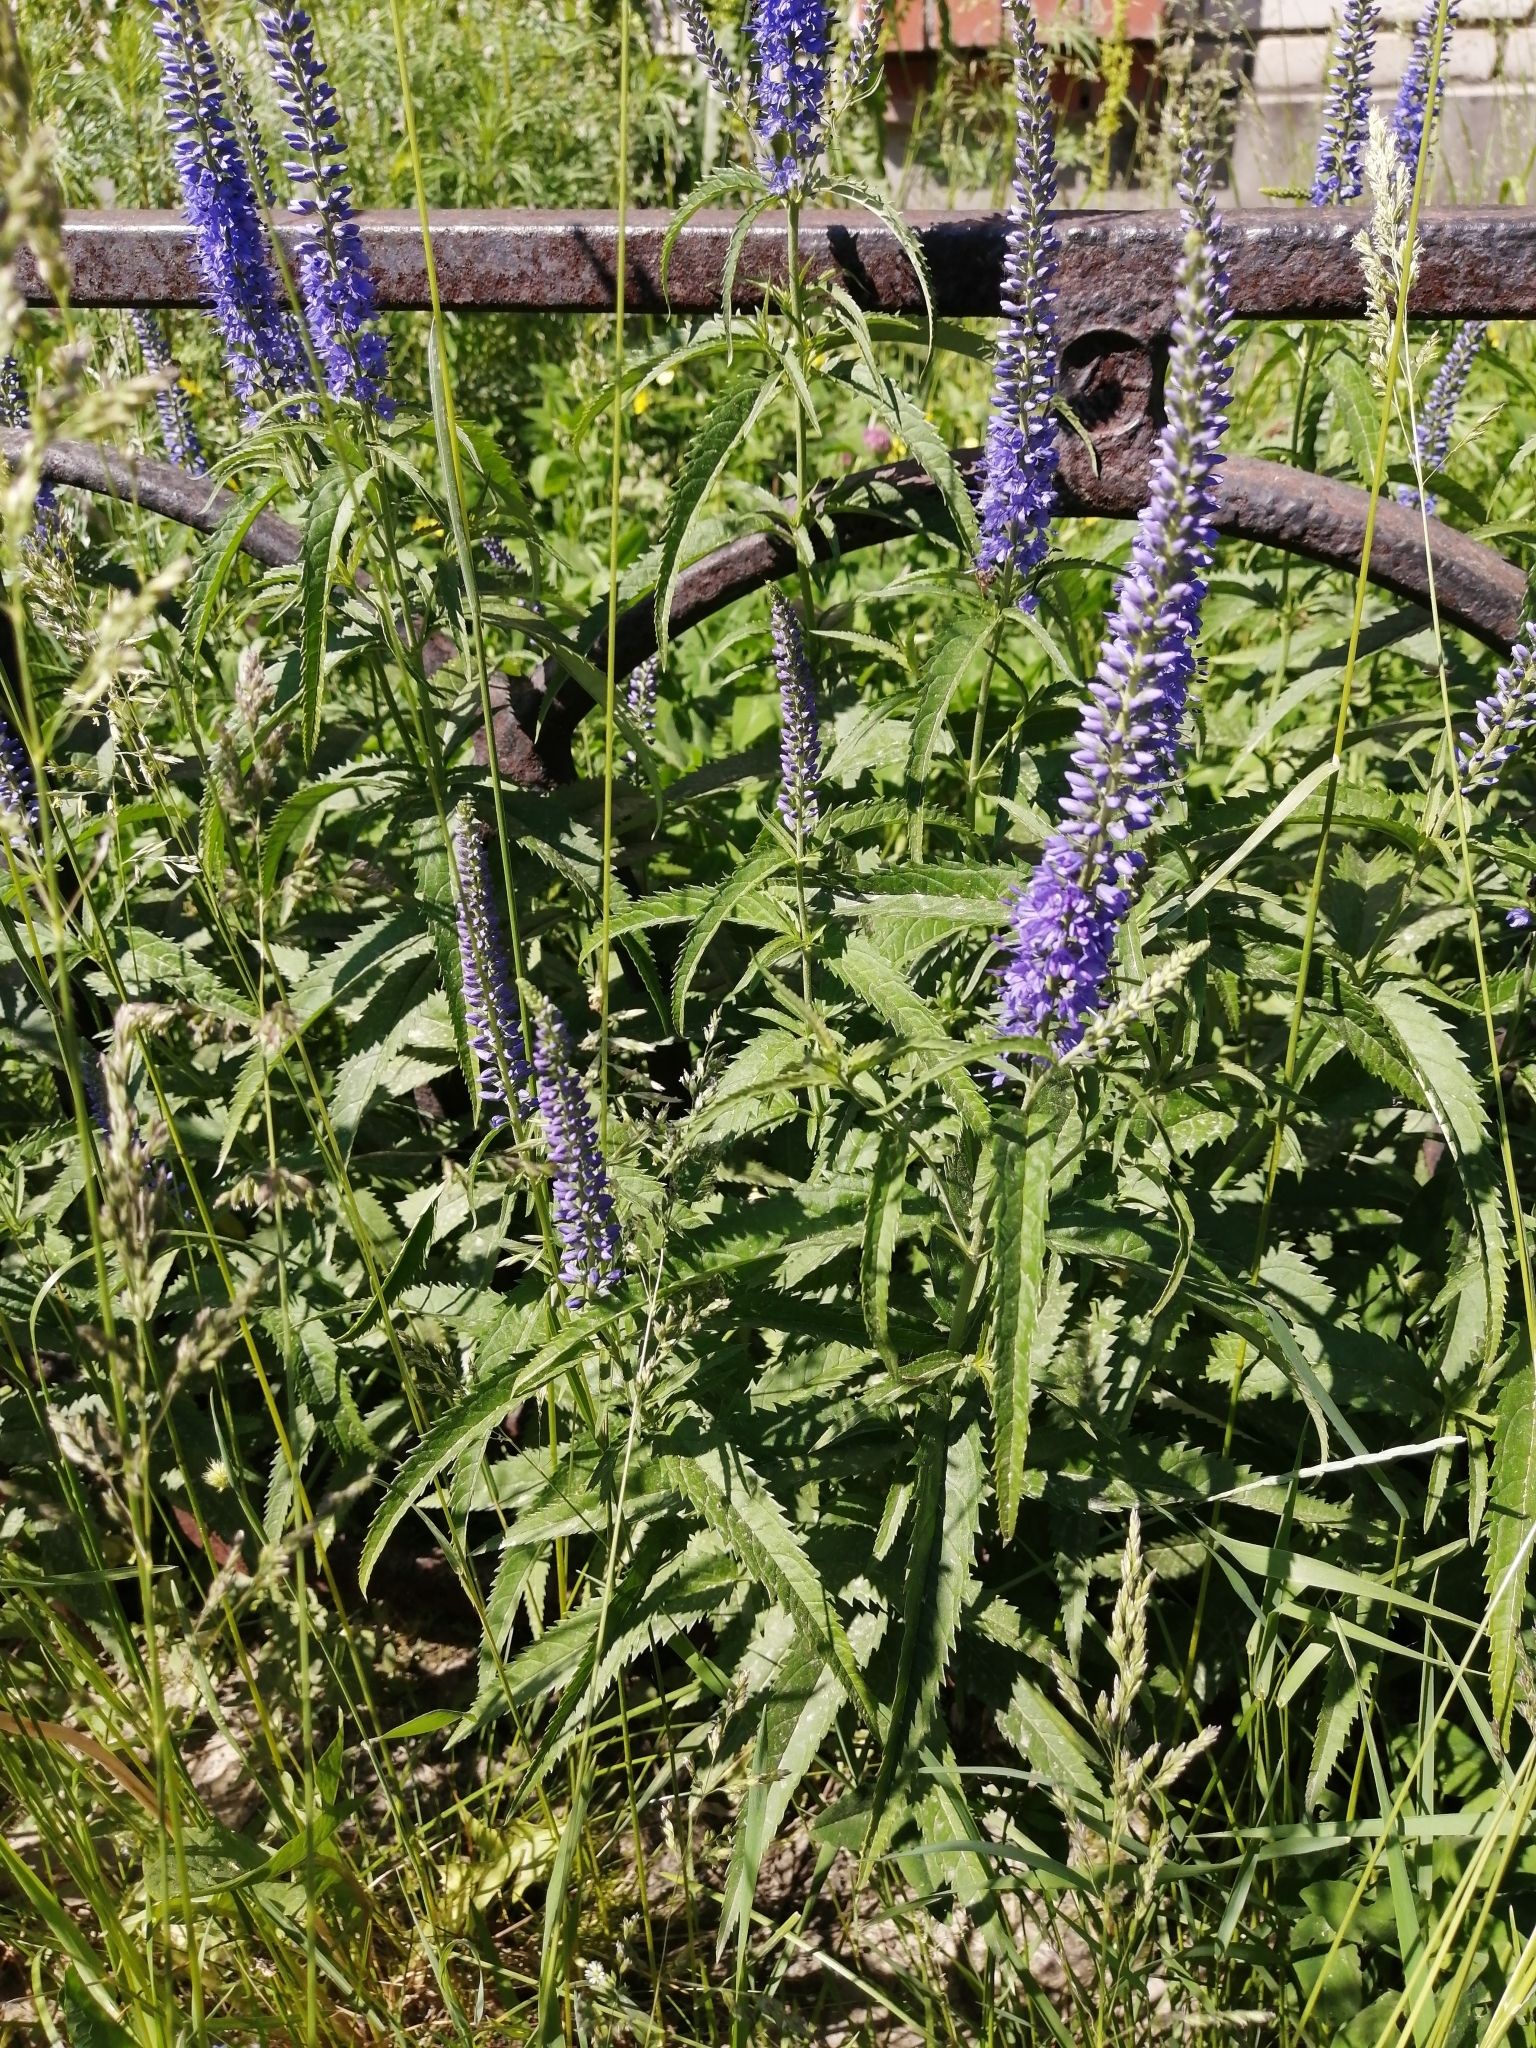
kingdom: Plantae
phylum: Tracheophyta
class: Magnoliopsida
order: Lamiales
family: Plantaginaceae
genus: Veronica
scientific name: Veronica longifolia
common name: Garden speedwell
